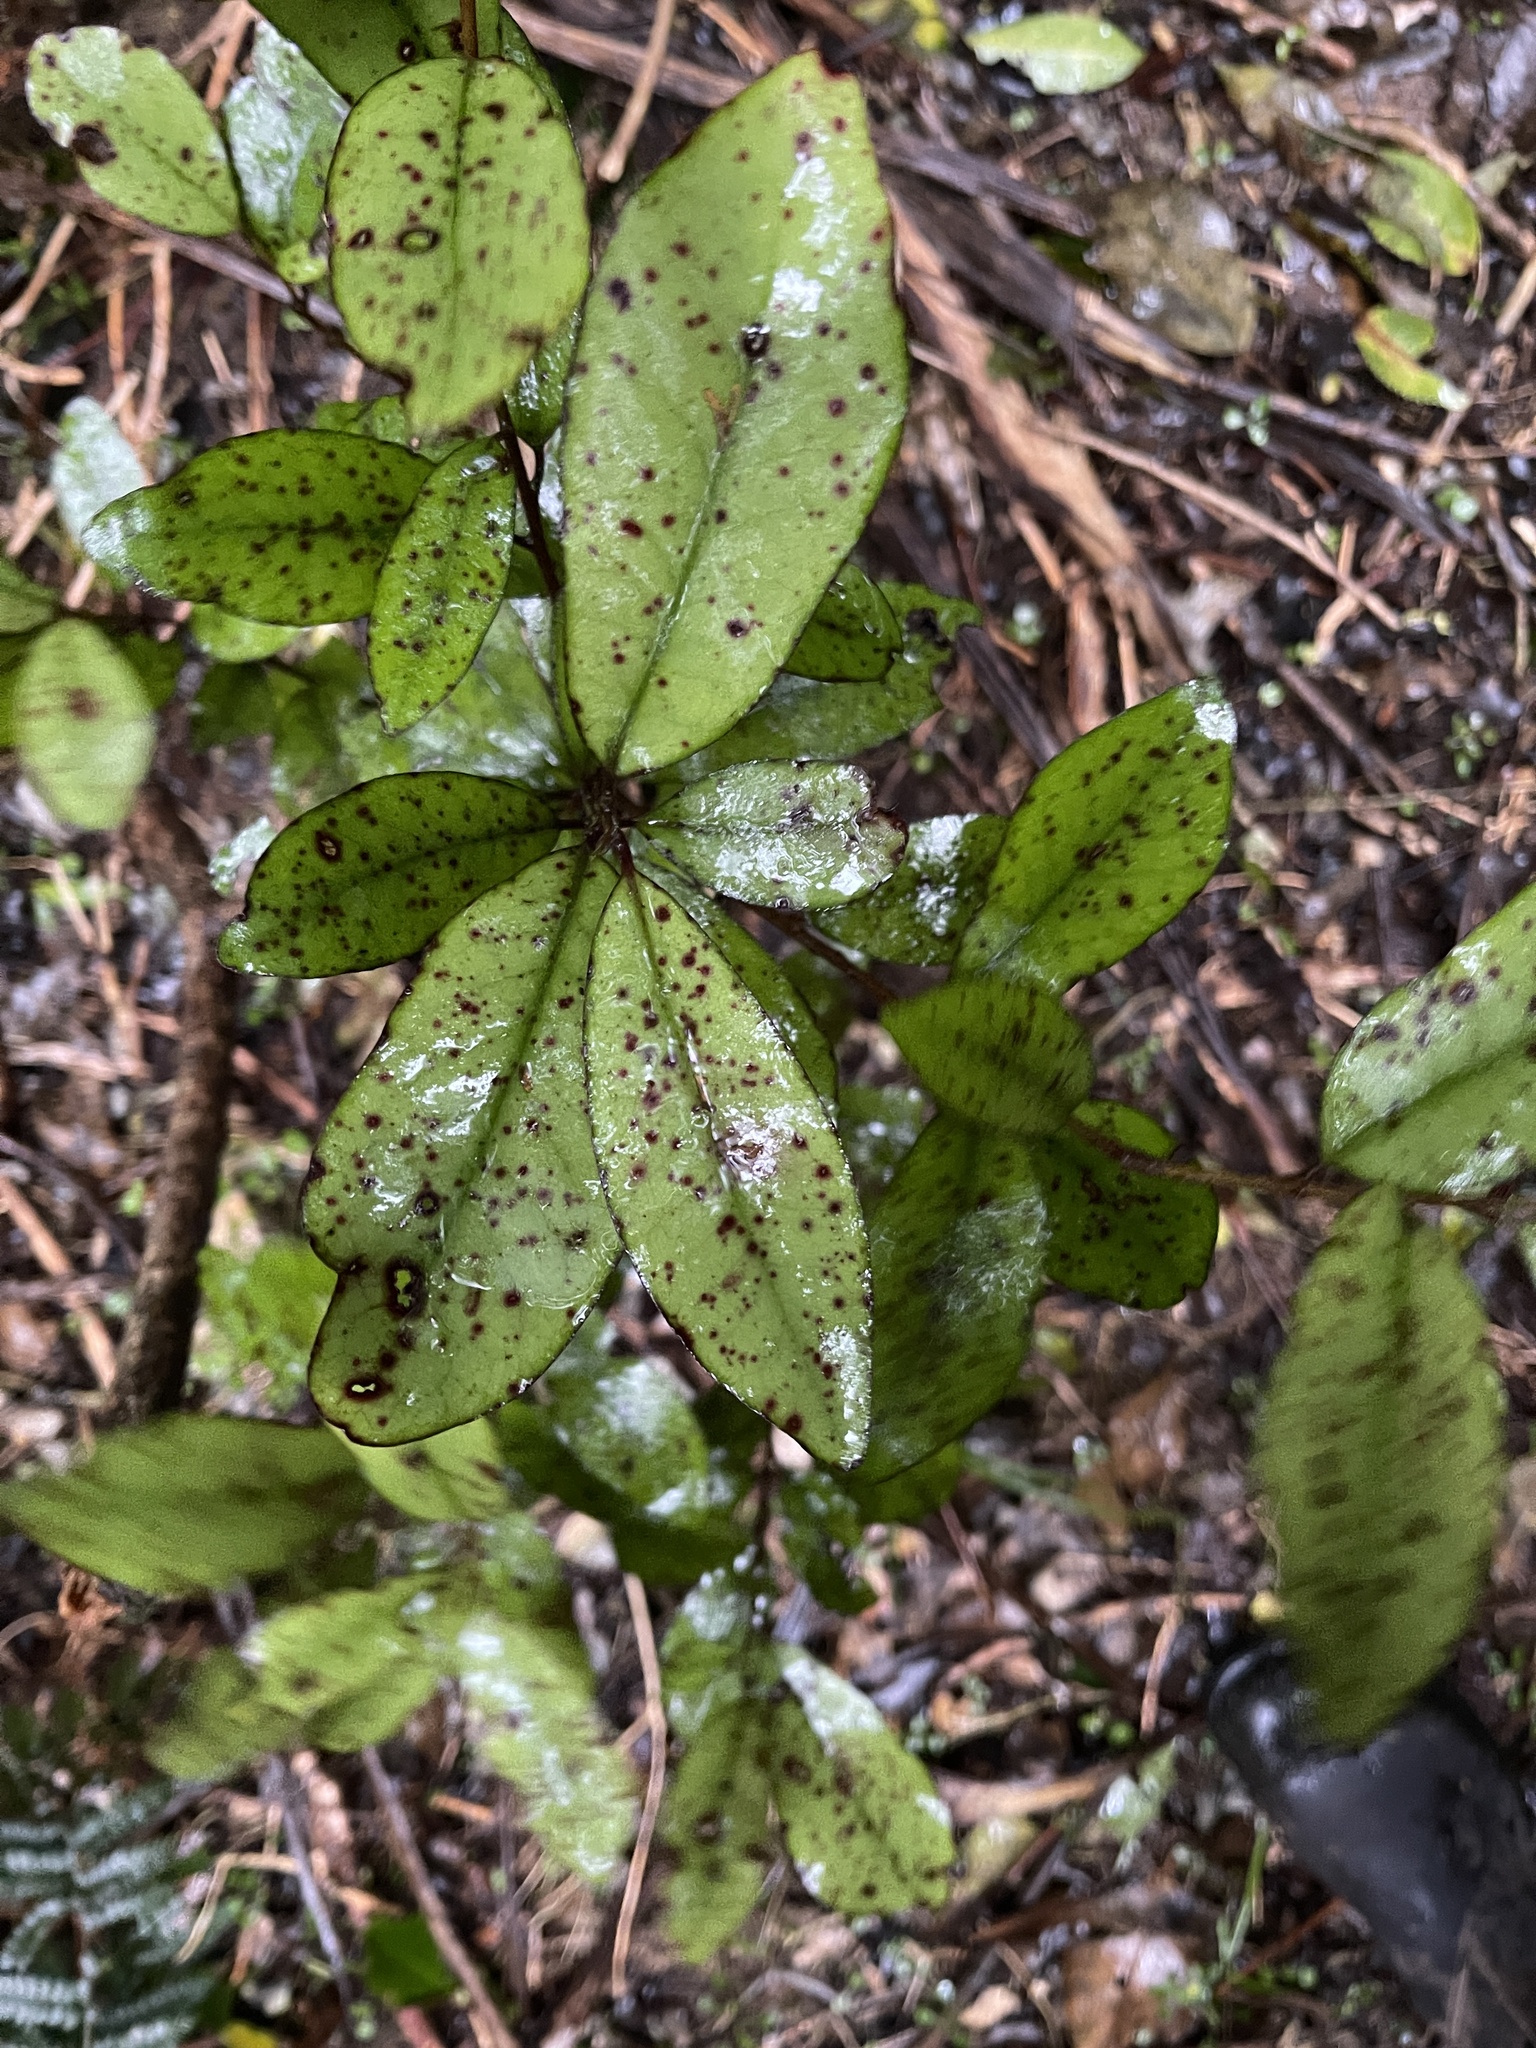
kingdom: Plantae
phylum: Tracheophyta
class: Magnoliopsida
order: Canellales
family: Winteraceae
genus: Pseudowintera
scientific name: Pseudowintera colorata
